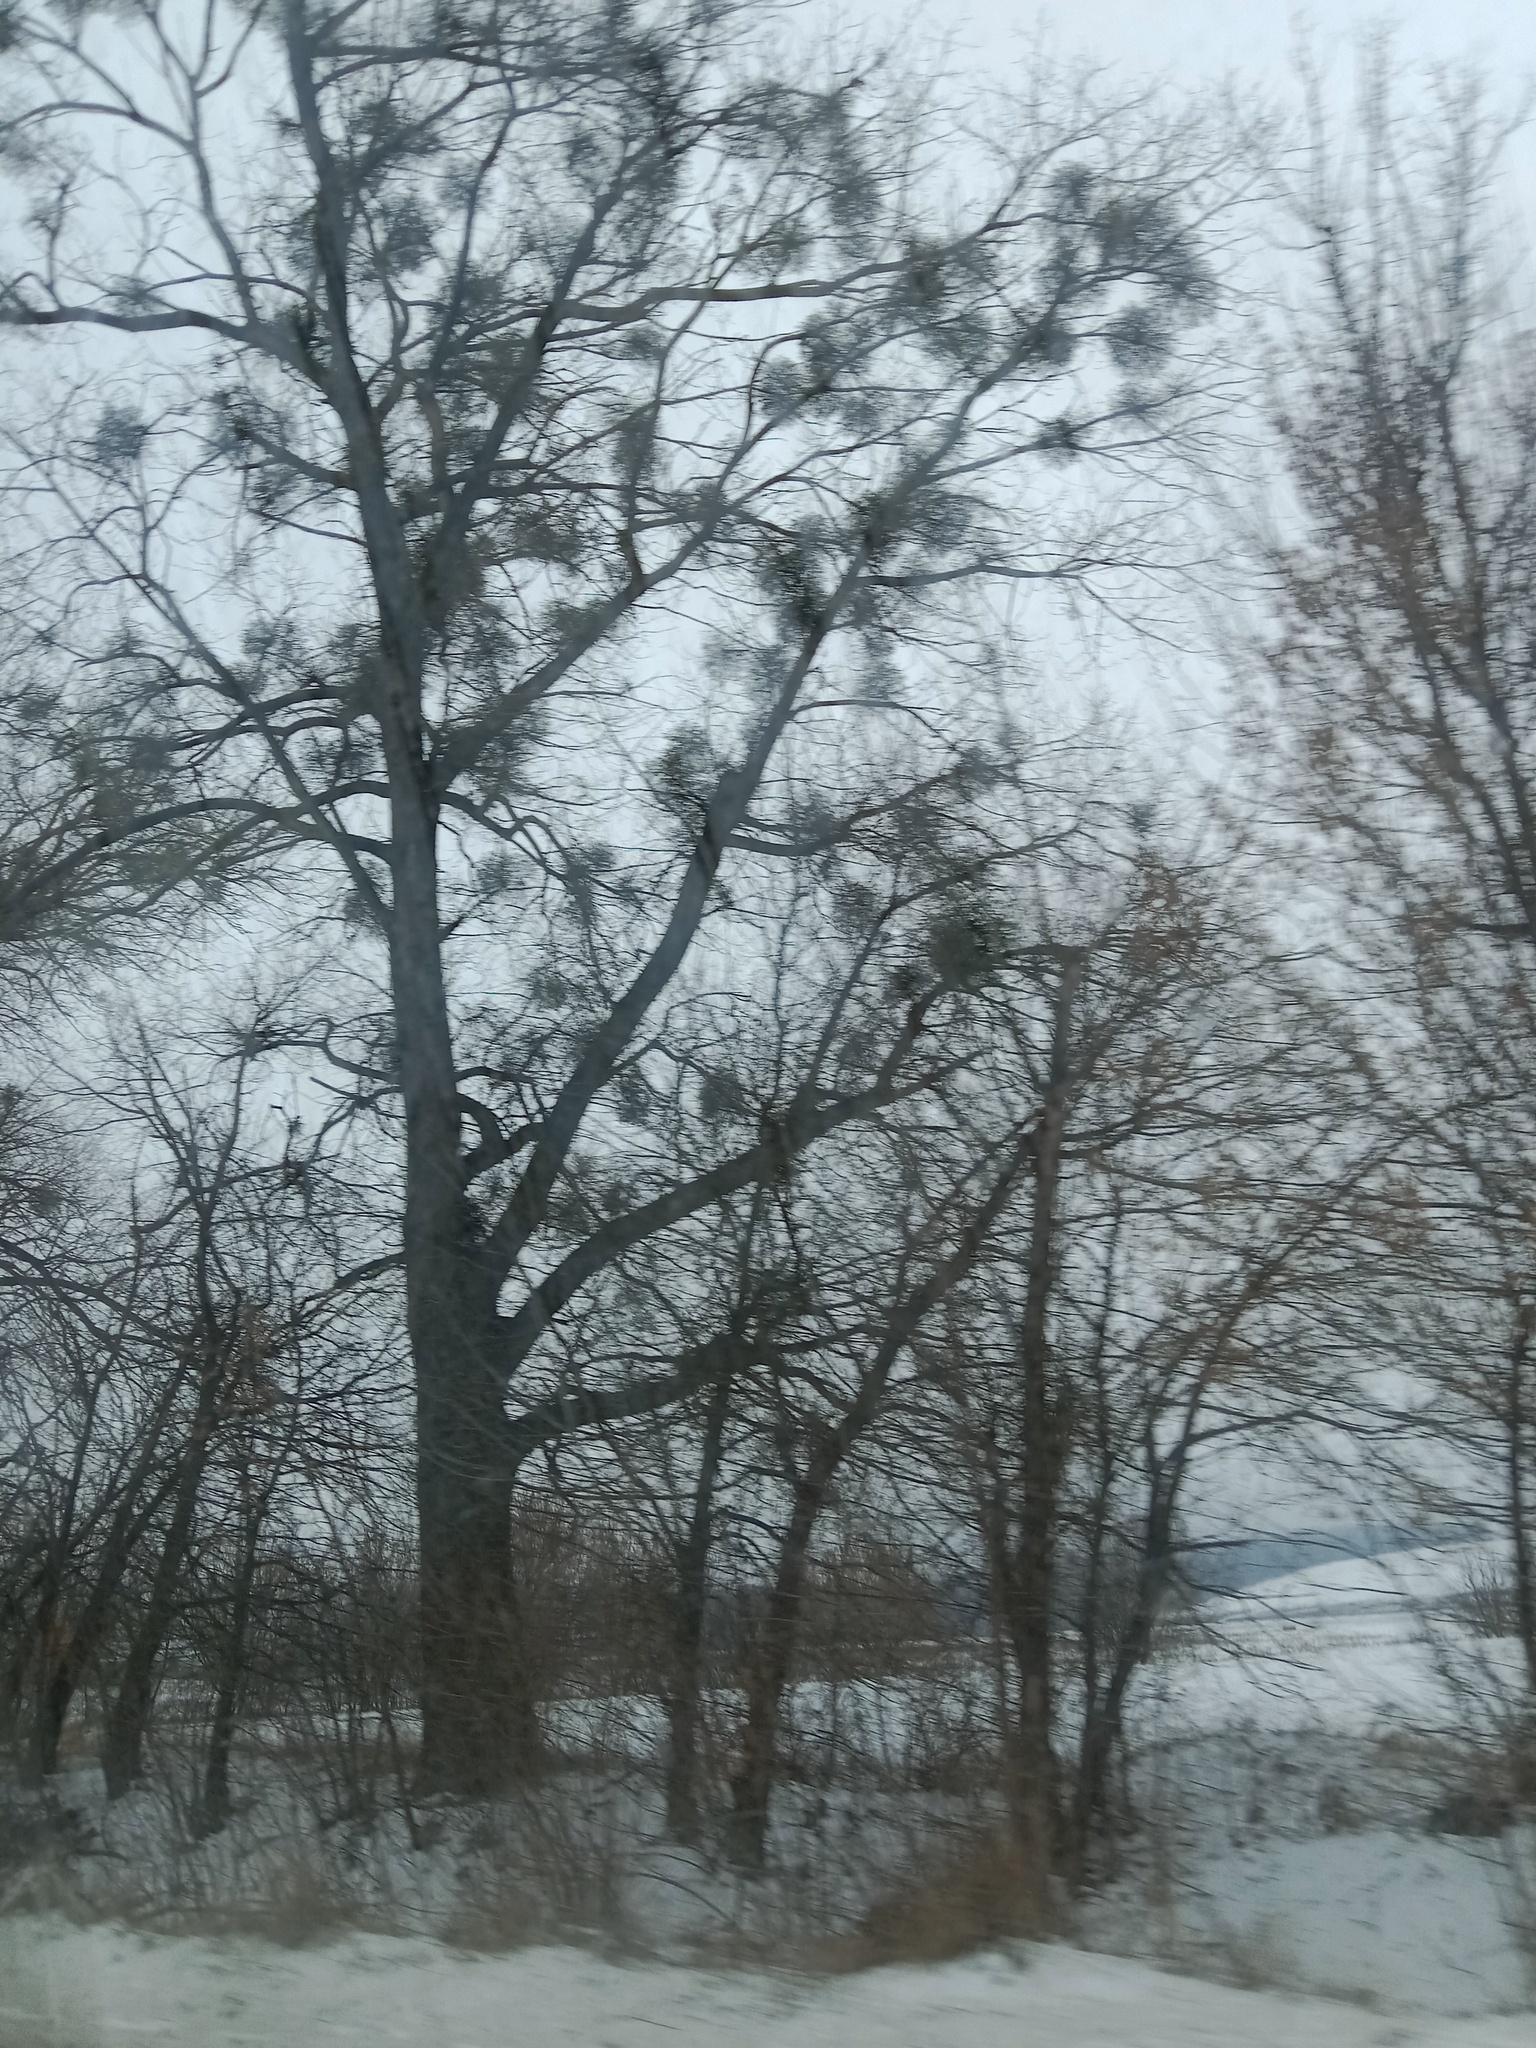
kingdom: Plantae
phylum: Tracheophyta
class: Magnoliopsida
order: Santalales
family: Viscaceae
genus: Viscum
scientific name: Viscum album
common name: Mistletoe
